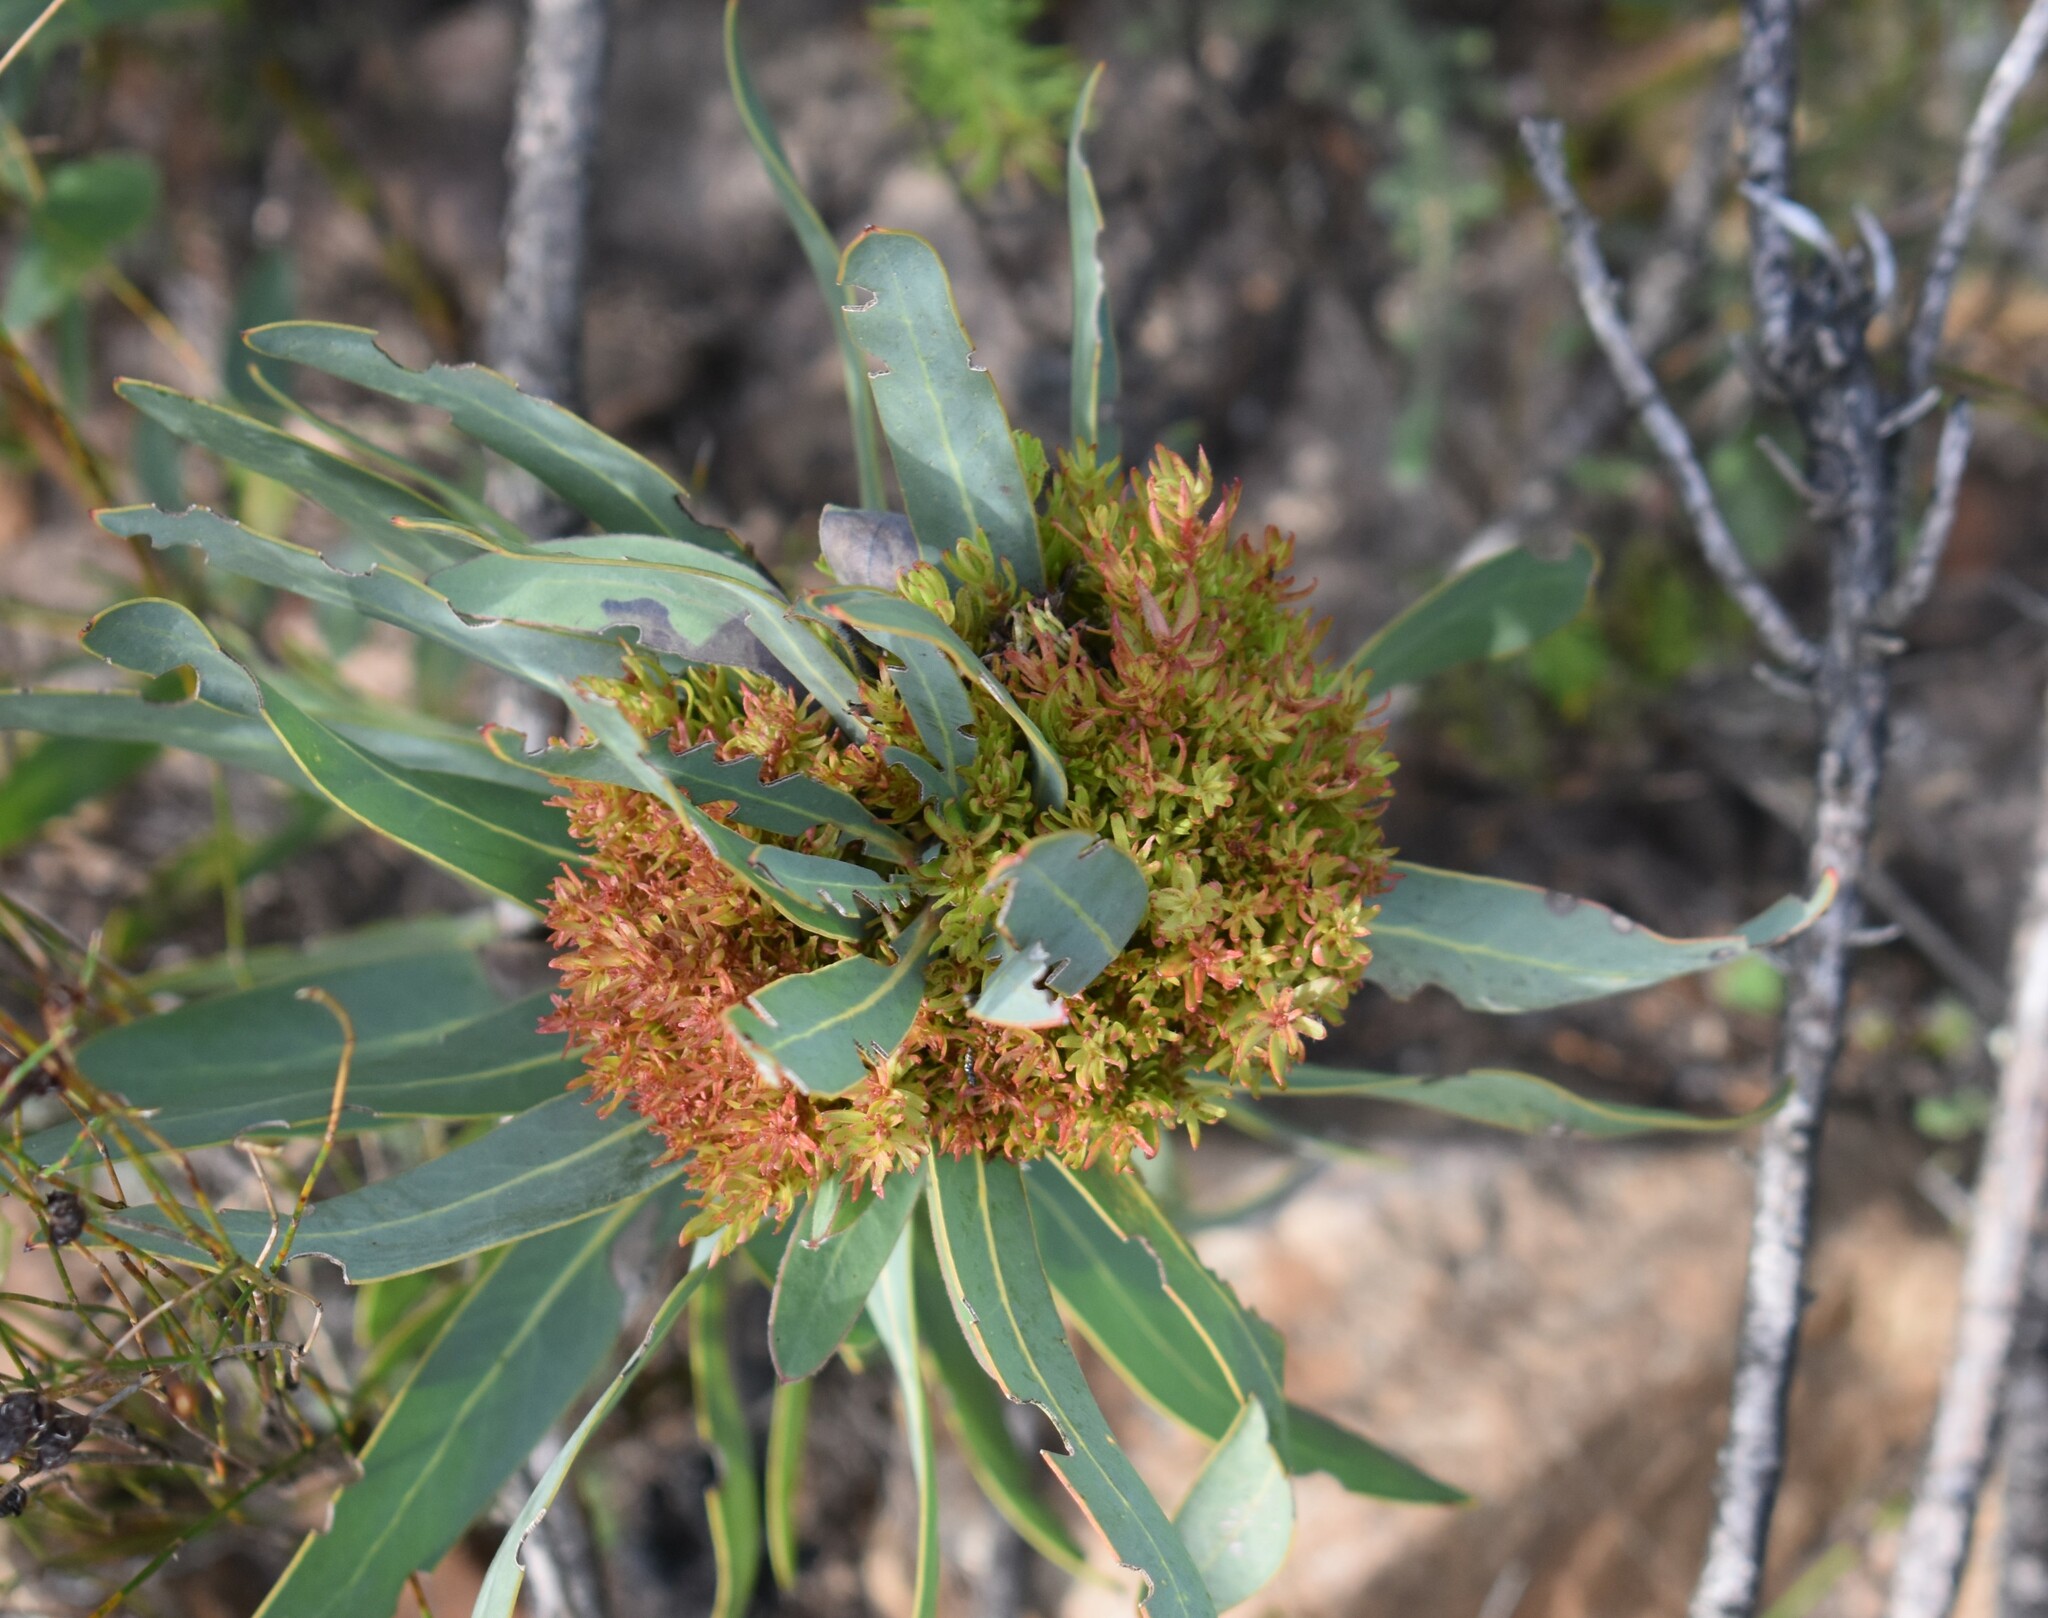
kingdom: Bacteria
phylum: Firmicutes
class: Bacilli
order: Acholeplasmatales
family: Acholeplasmataceae
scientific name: Acholeplasmataceae
